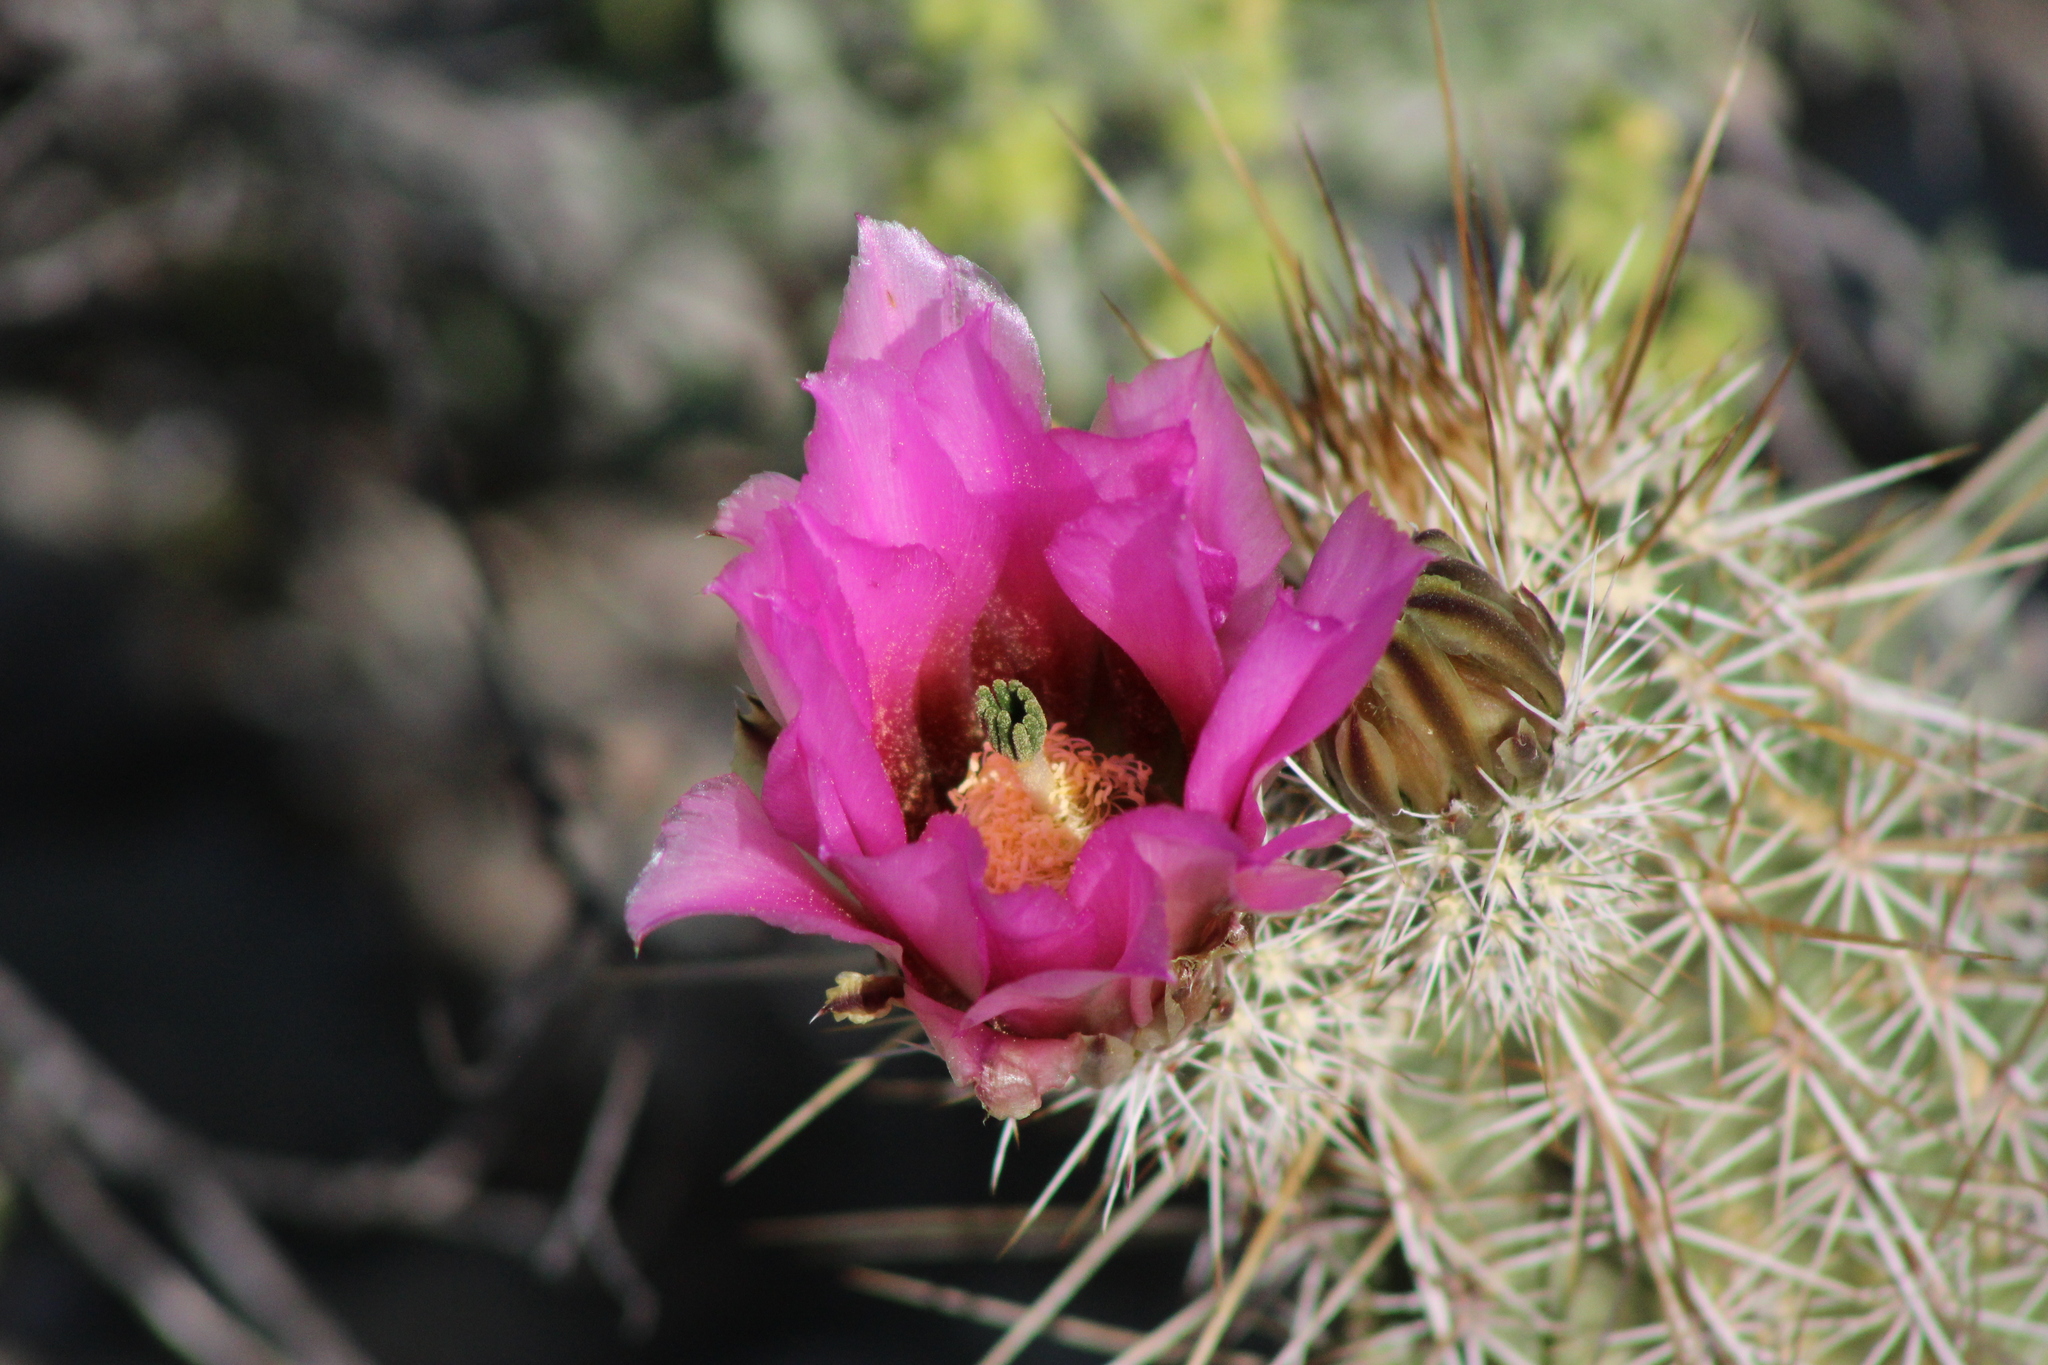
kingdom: Plantae
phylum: Tracheophyta
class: Magnoliopsida
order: Caryophyllales
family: Cactaceae
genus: Echinocereus
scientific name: Echinocereus fasciculatus
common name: Bundle hedgehog
